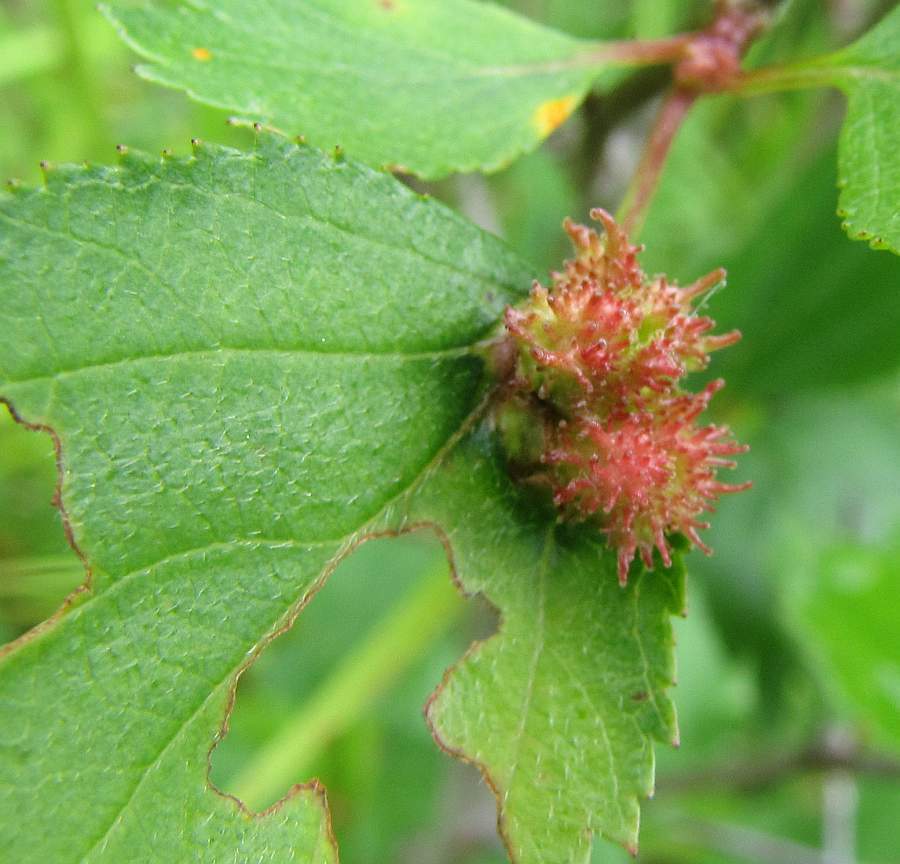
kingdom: Animalia
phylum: Arthropoda
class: Insecta
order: Diptera
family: Cecidomyiidae
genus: Blaesodiplosis
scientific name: Blaesodiplosis crataegibedeguar
